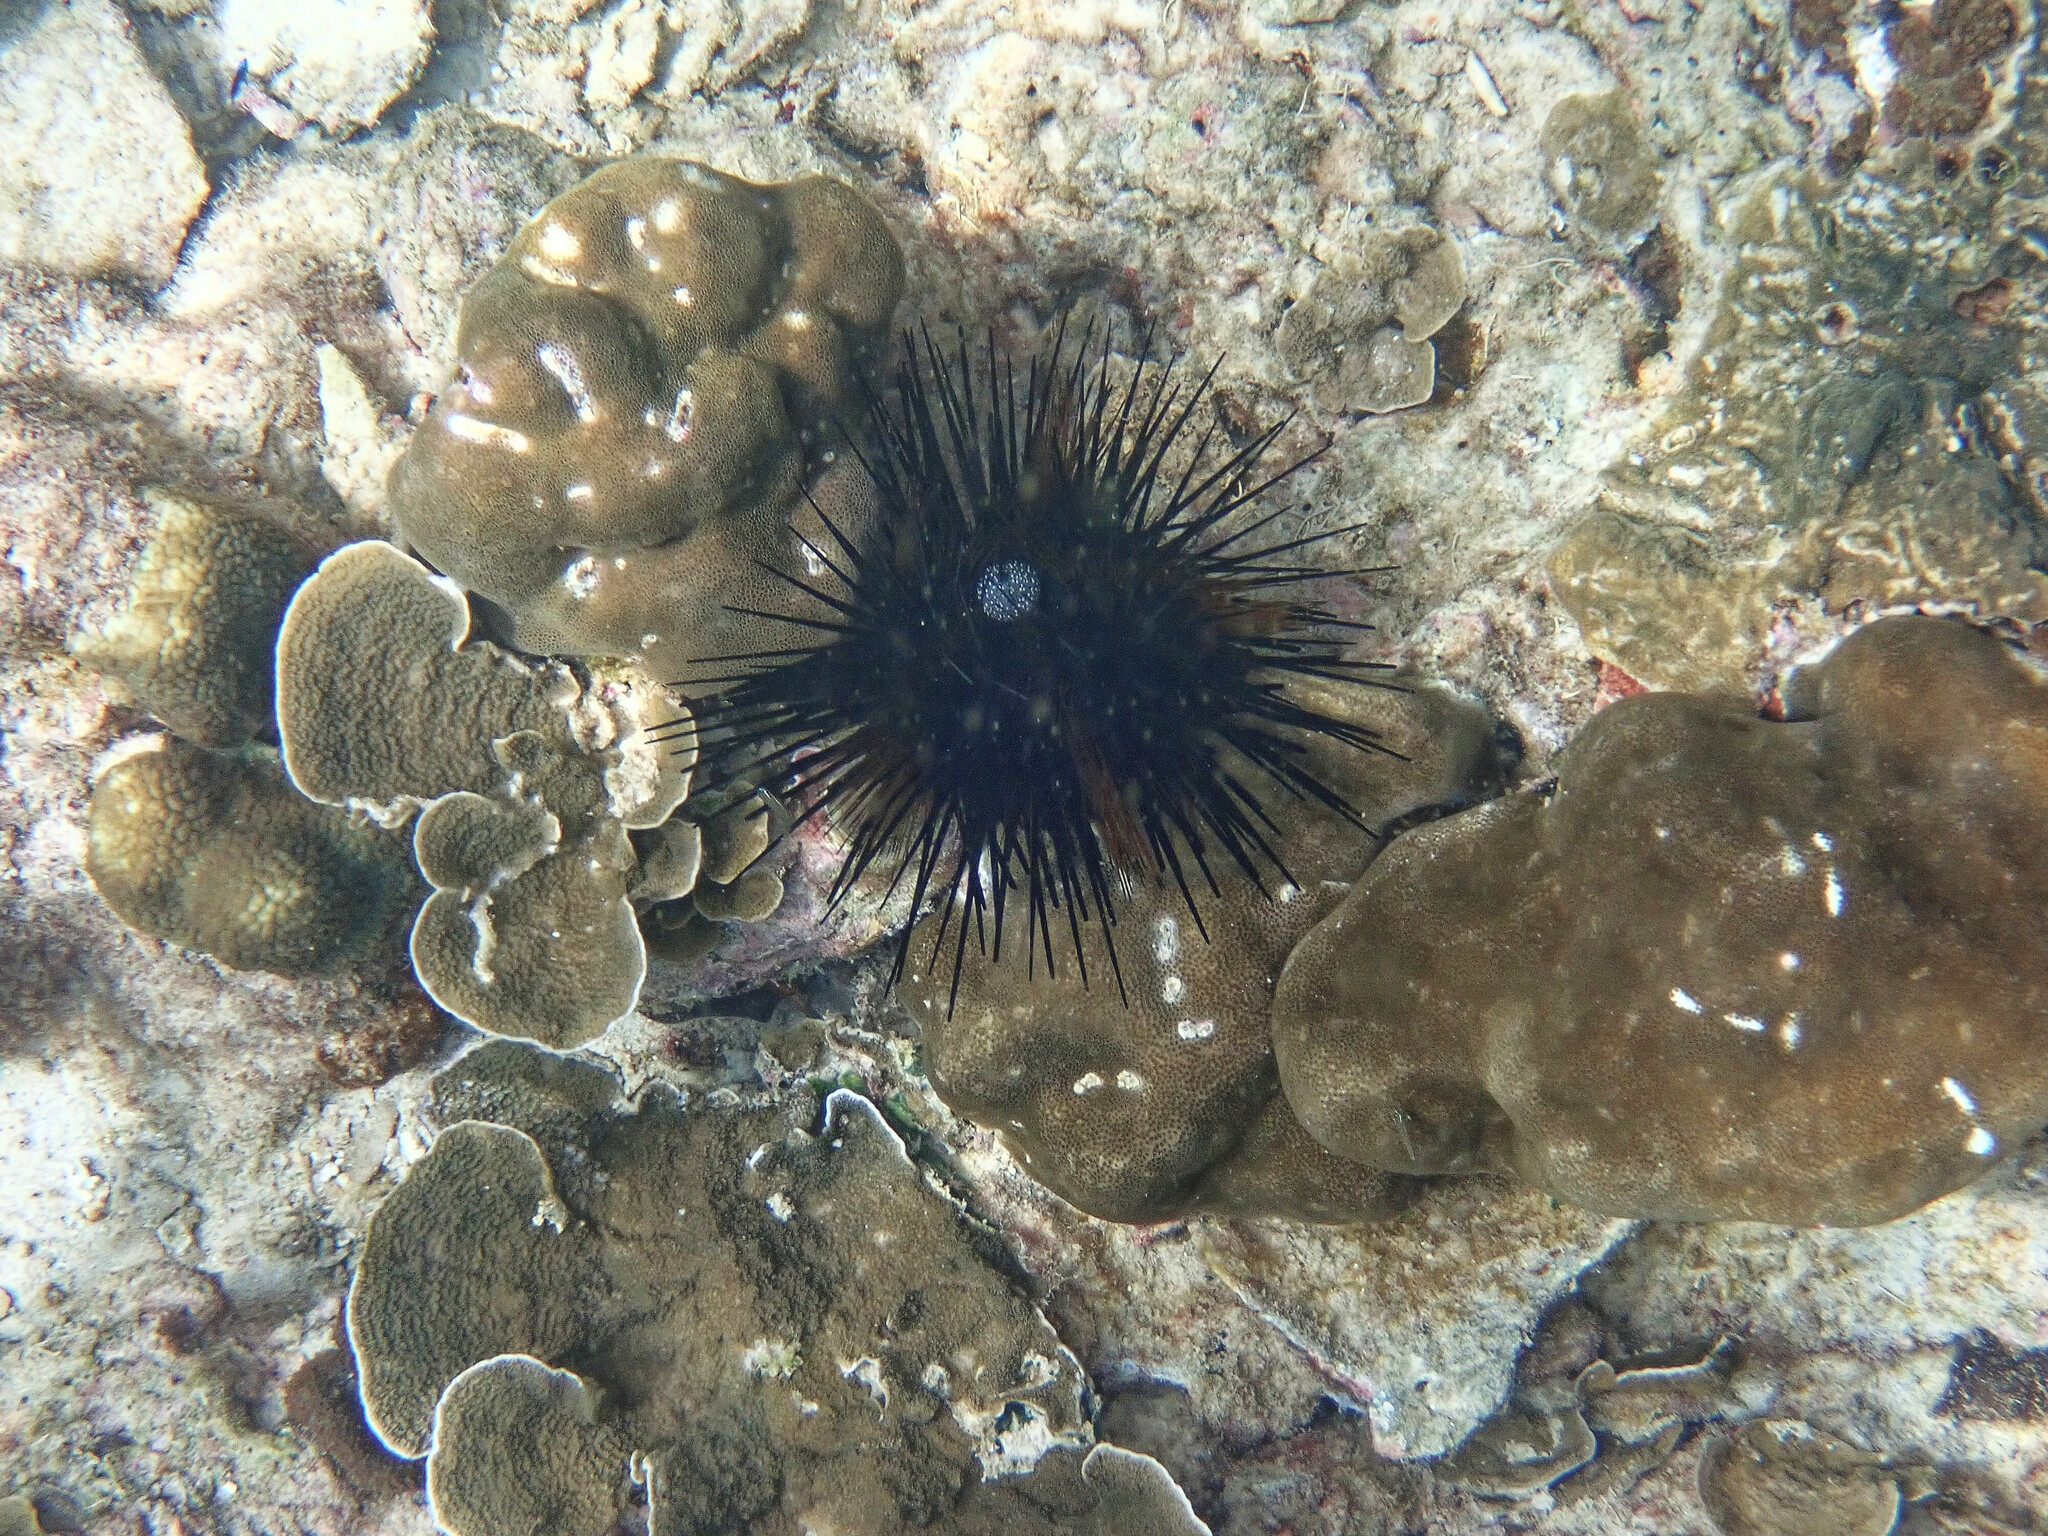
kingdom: Animalia
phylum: Echinodermata
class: Echinoidea
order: Diadematoida
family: Diadematidae
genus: Echinothrix
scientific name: Echinothrix calamaris
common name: Banded sea urchin
